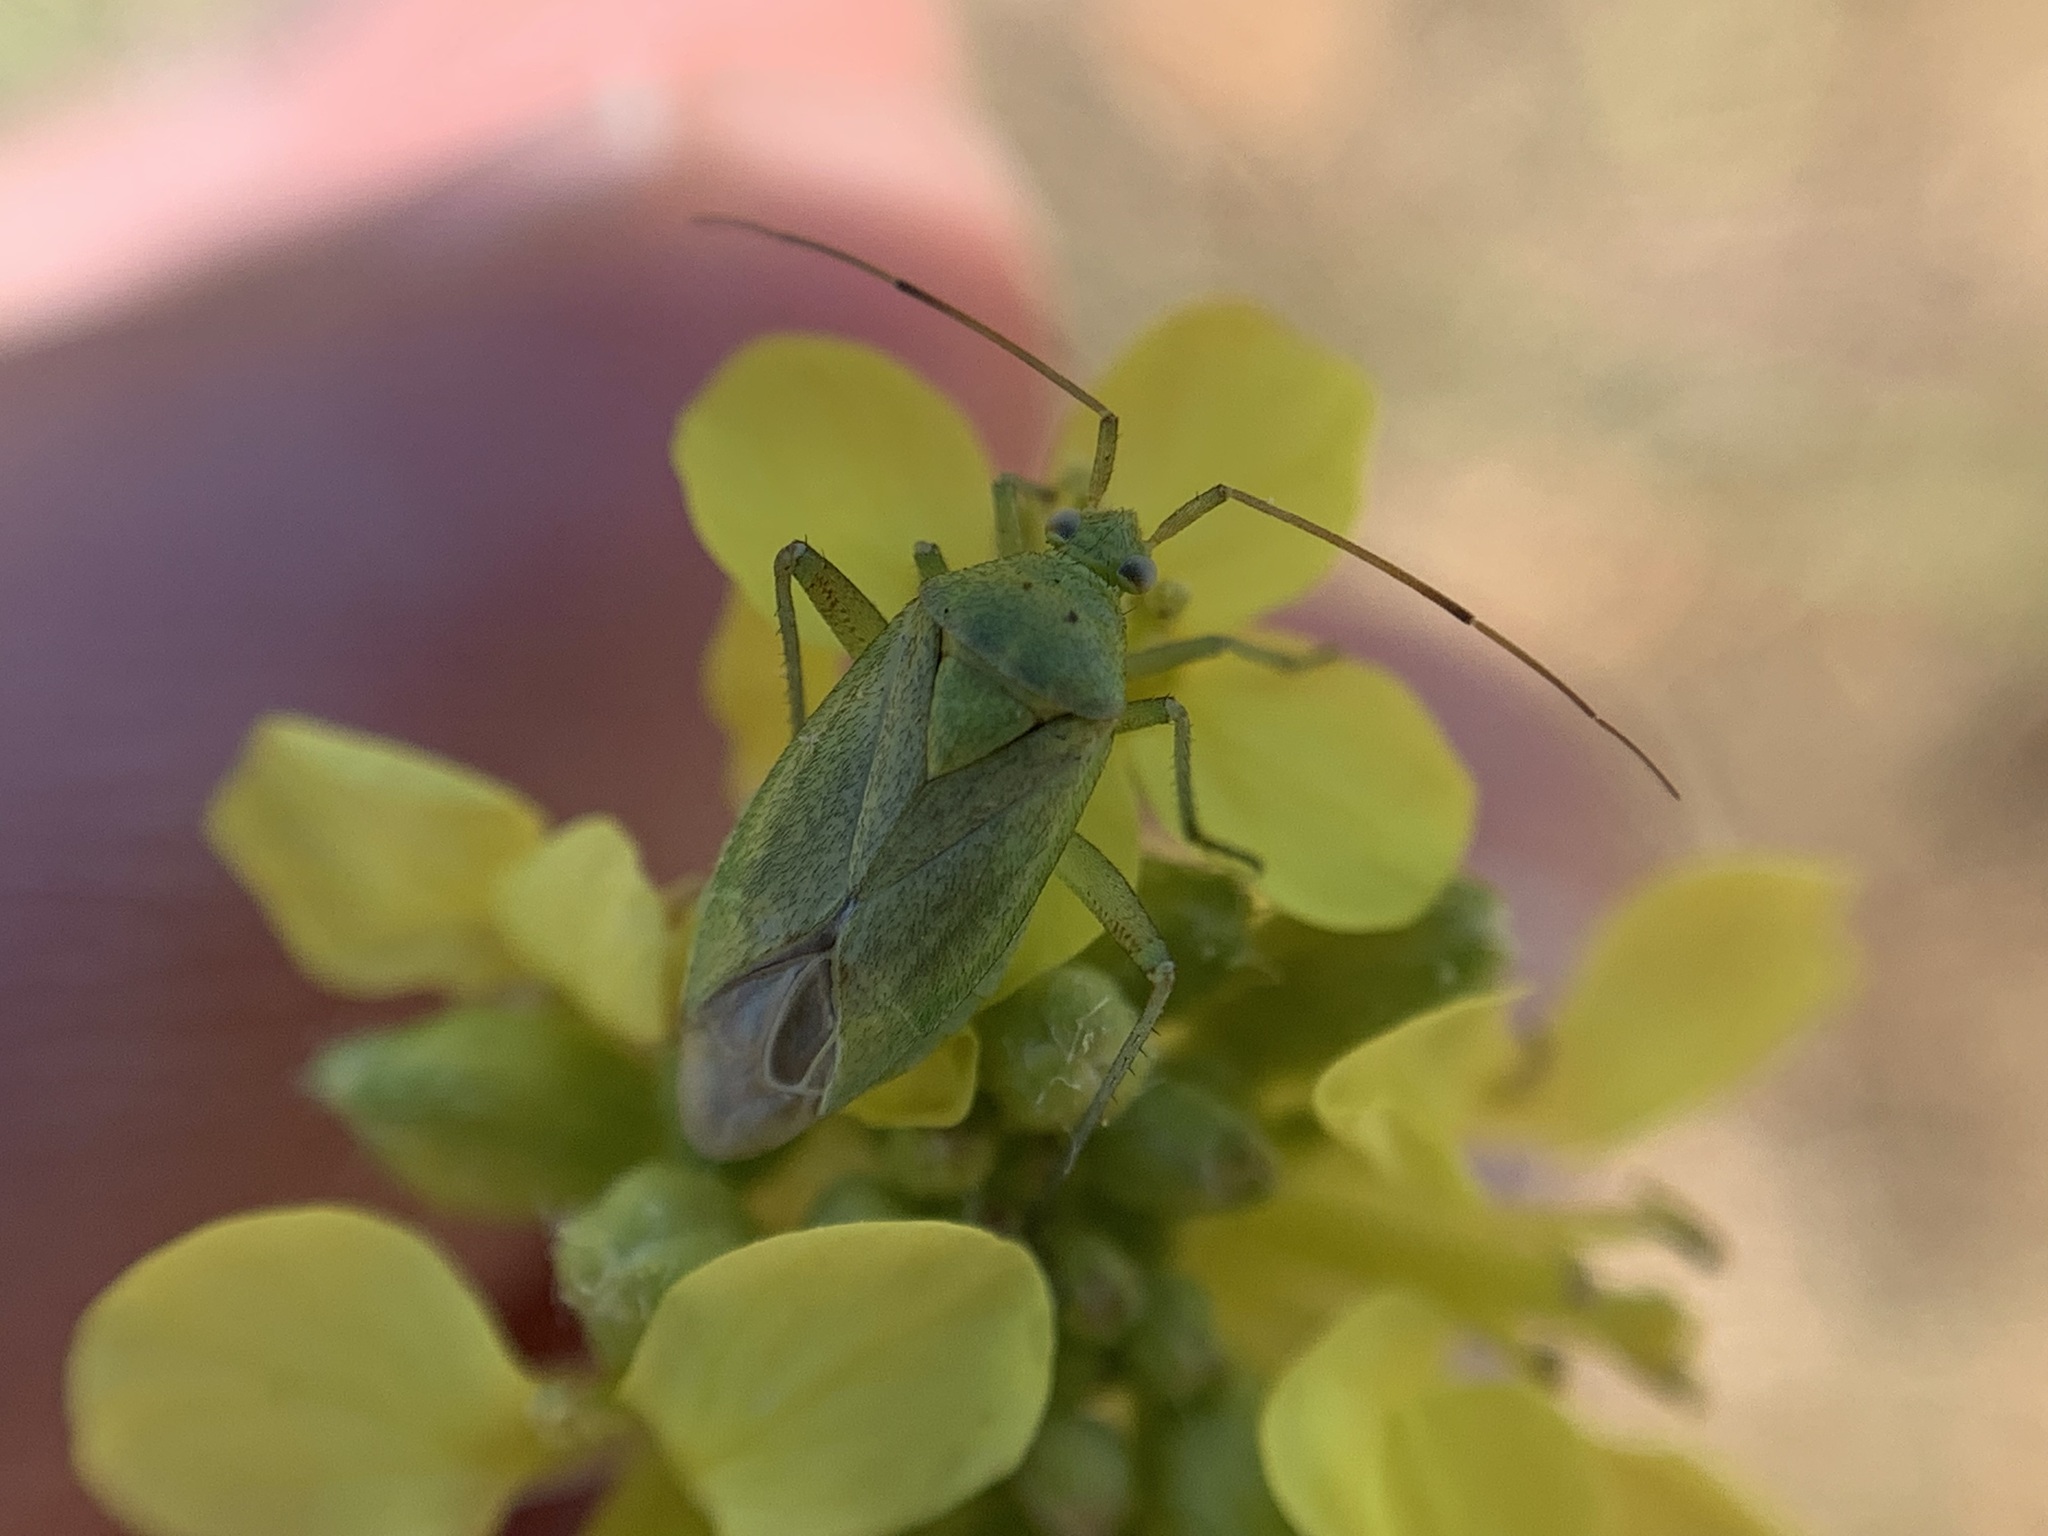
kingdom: Animalia
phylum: Arthropoda
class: Insecta
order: Hemiptera
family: Miridae
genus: Closterotomus
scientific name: Closterotomus norvegicus
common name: Plant bug
